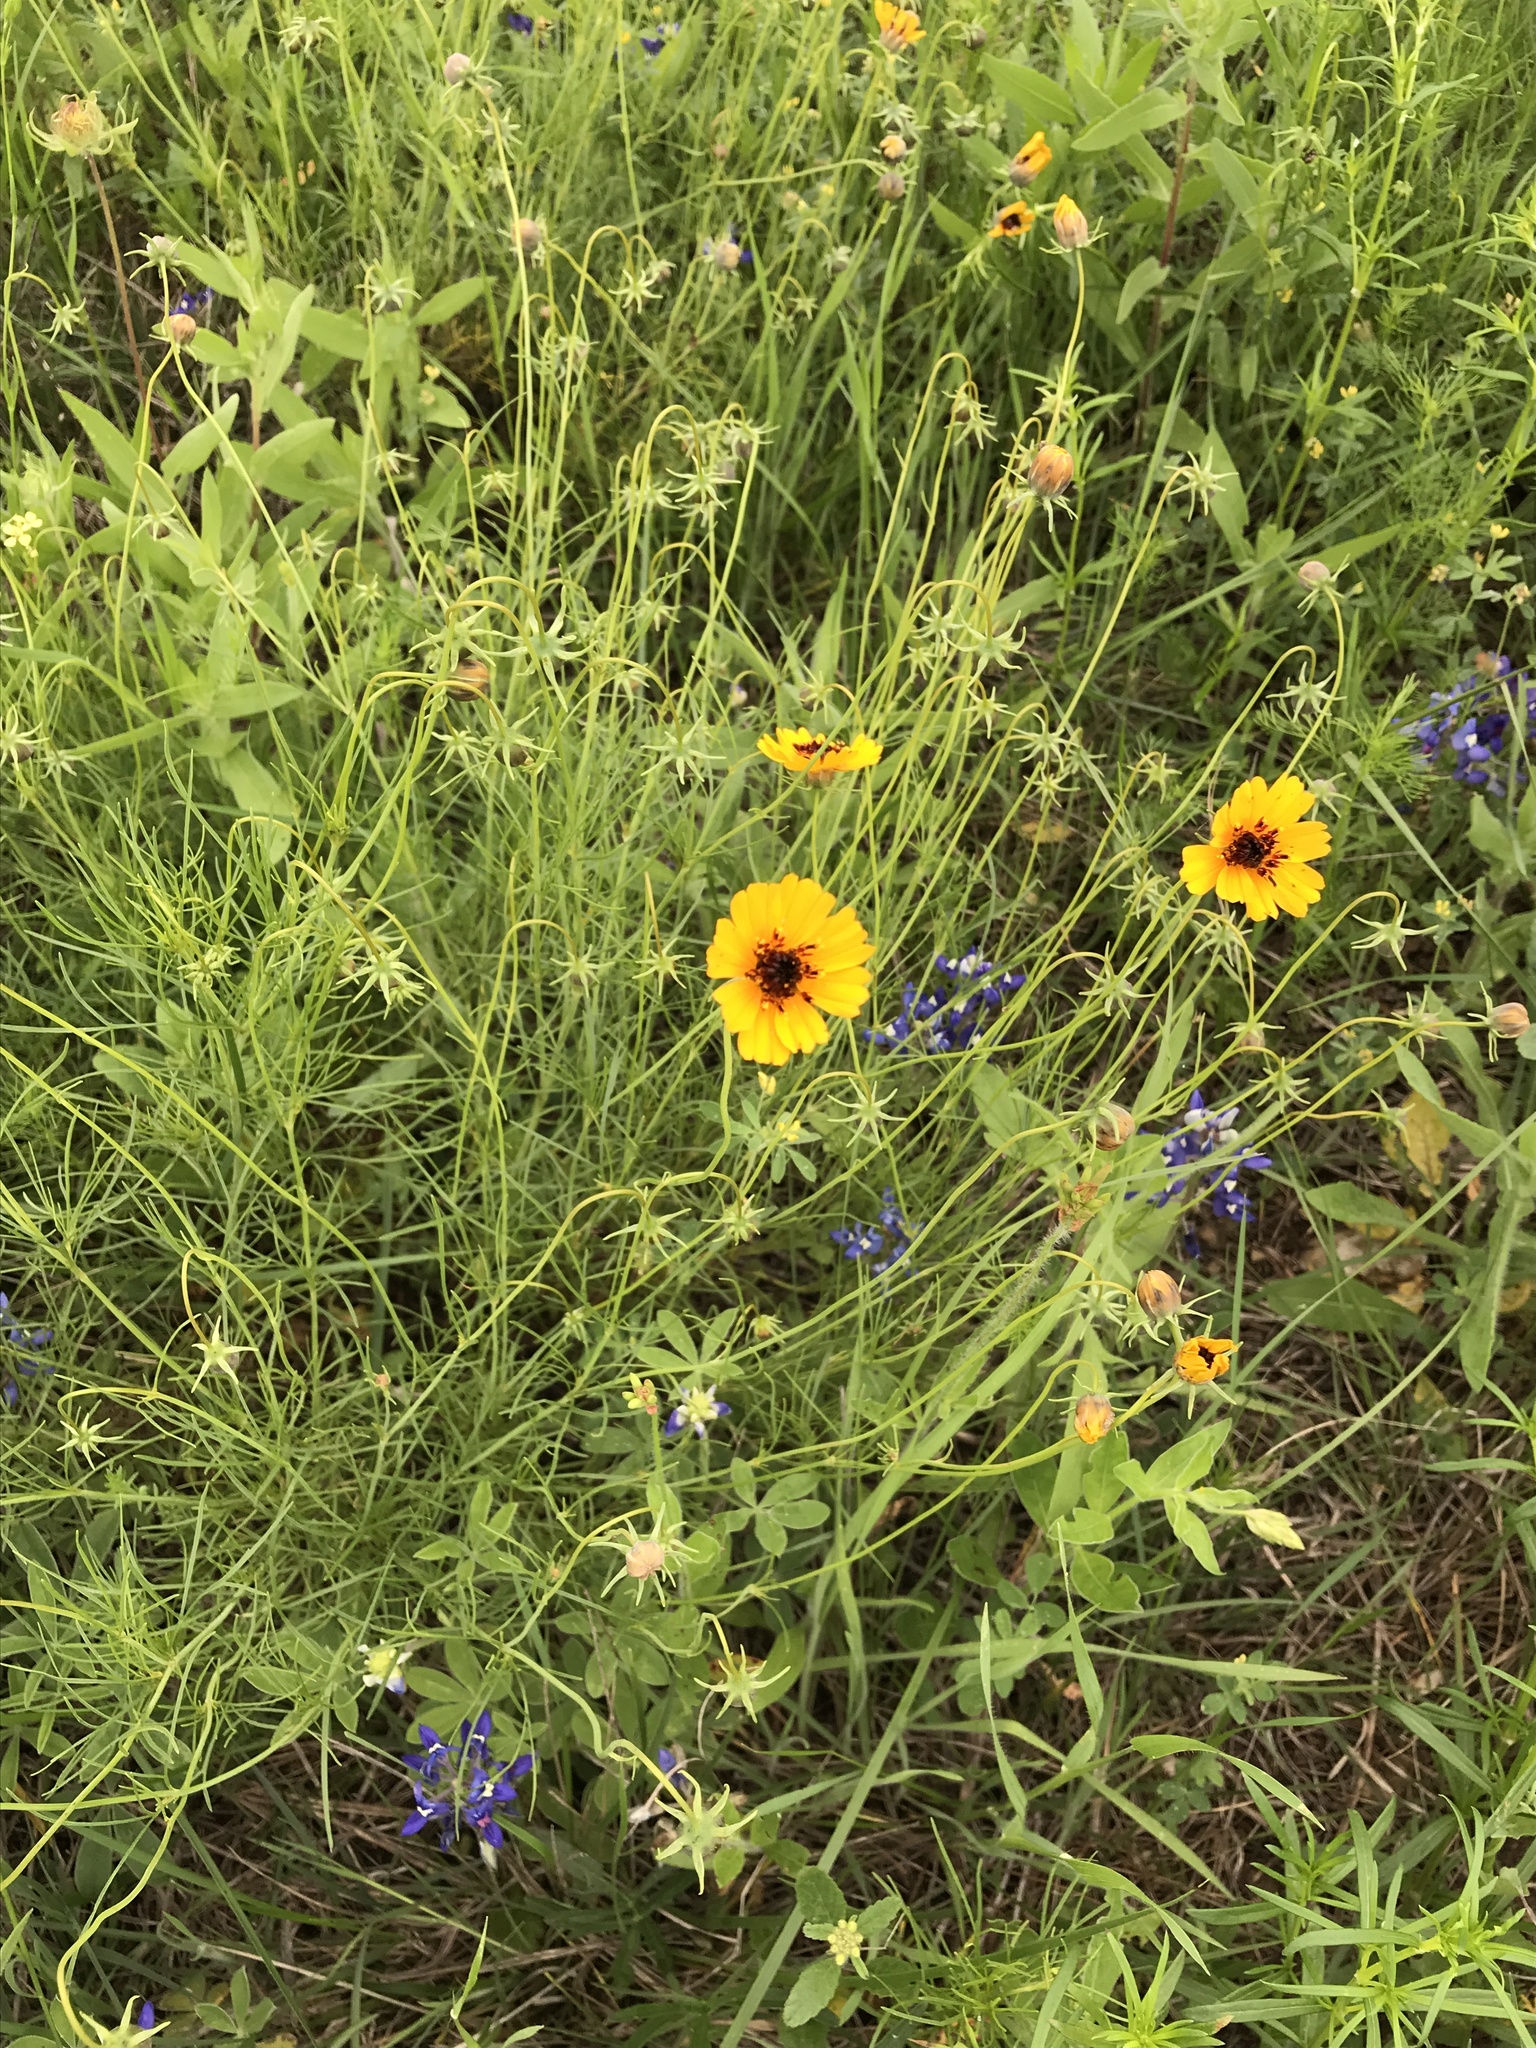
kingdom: Plantae
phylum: Tracheophyta
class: Magnoliopsida
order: Asterales
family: Asteraceae
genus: Thelesperma
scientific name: Thelesperma filifolium
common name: Stiff greenthread
